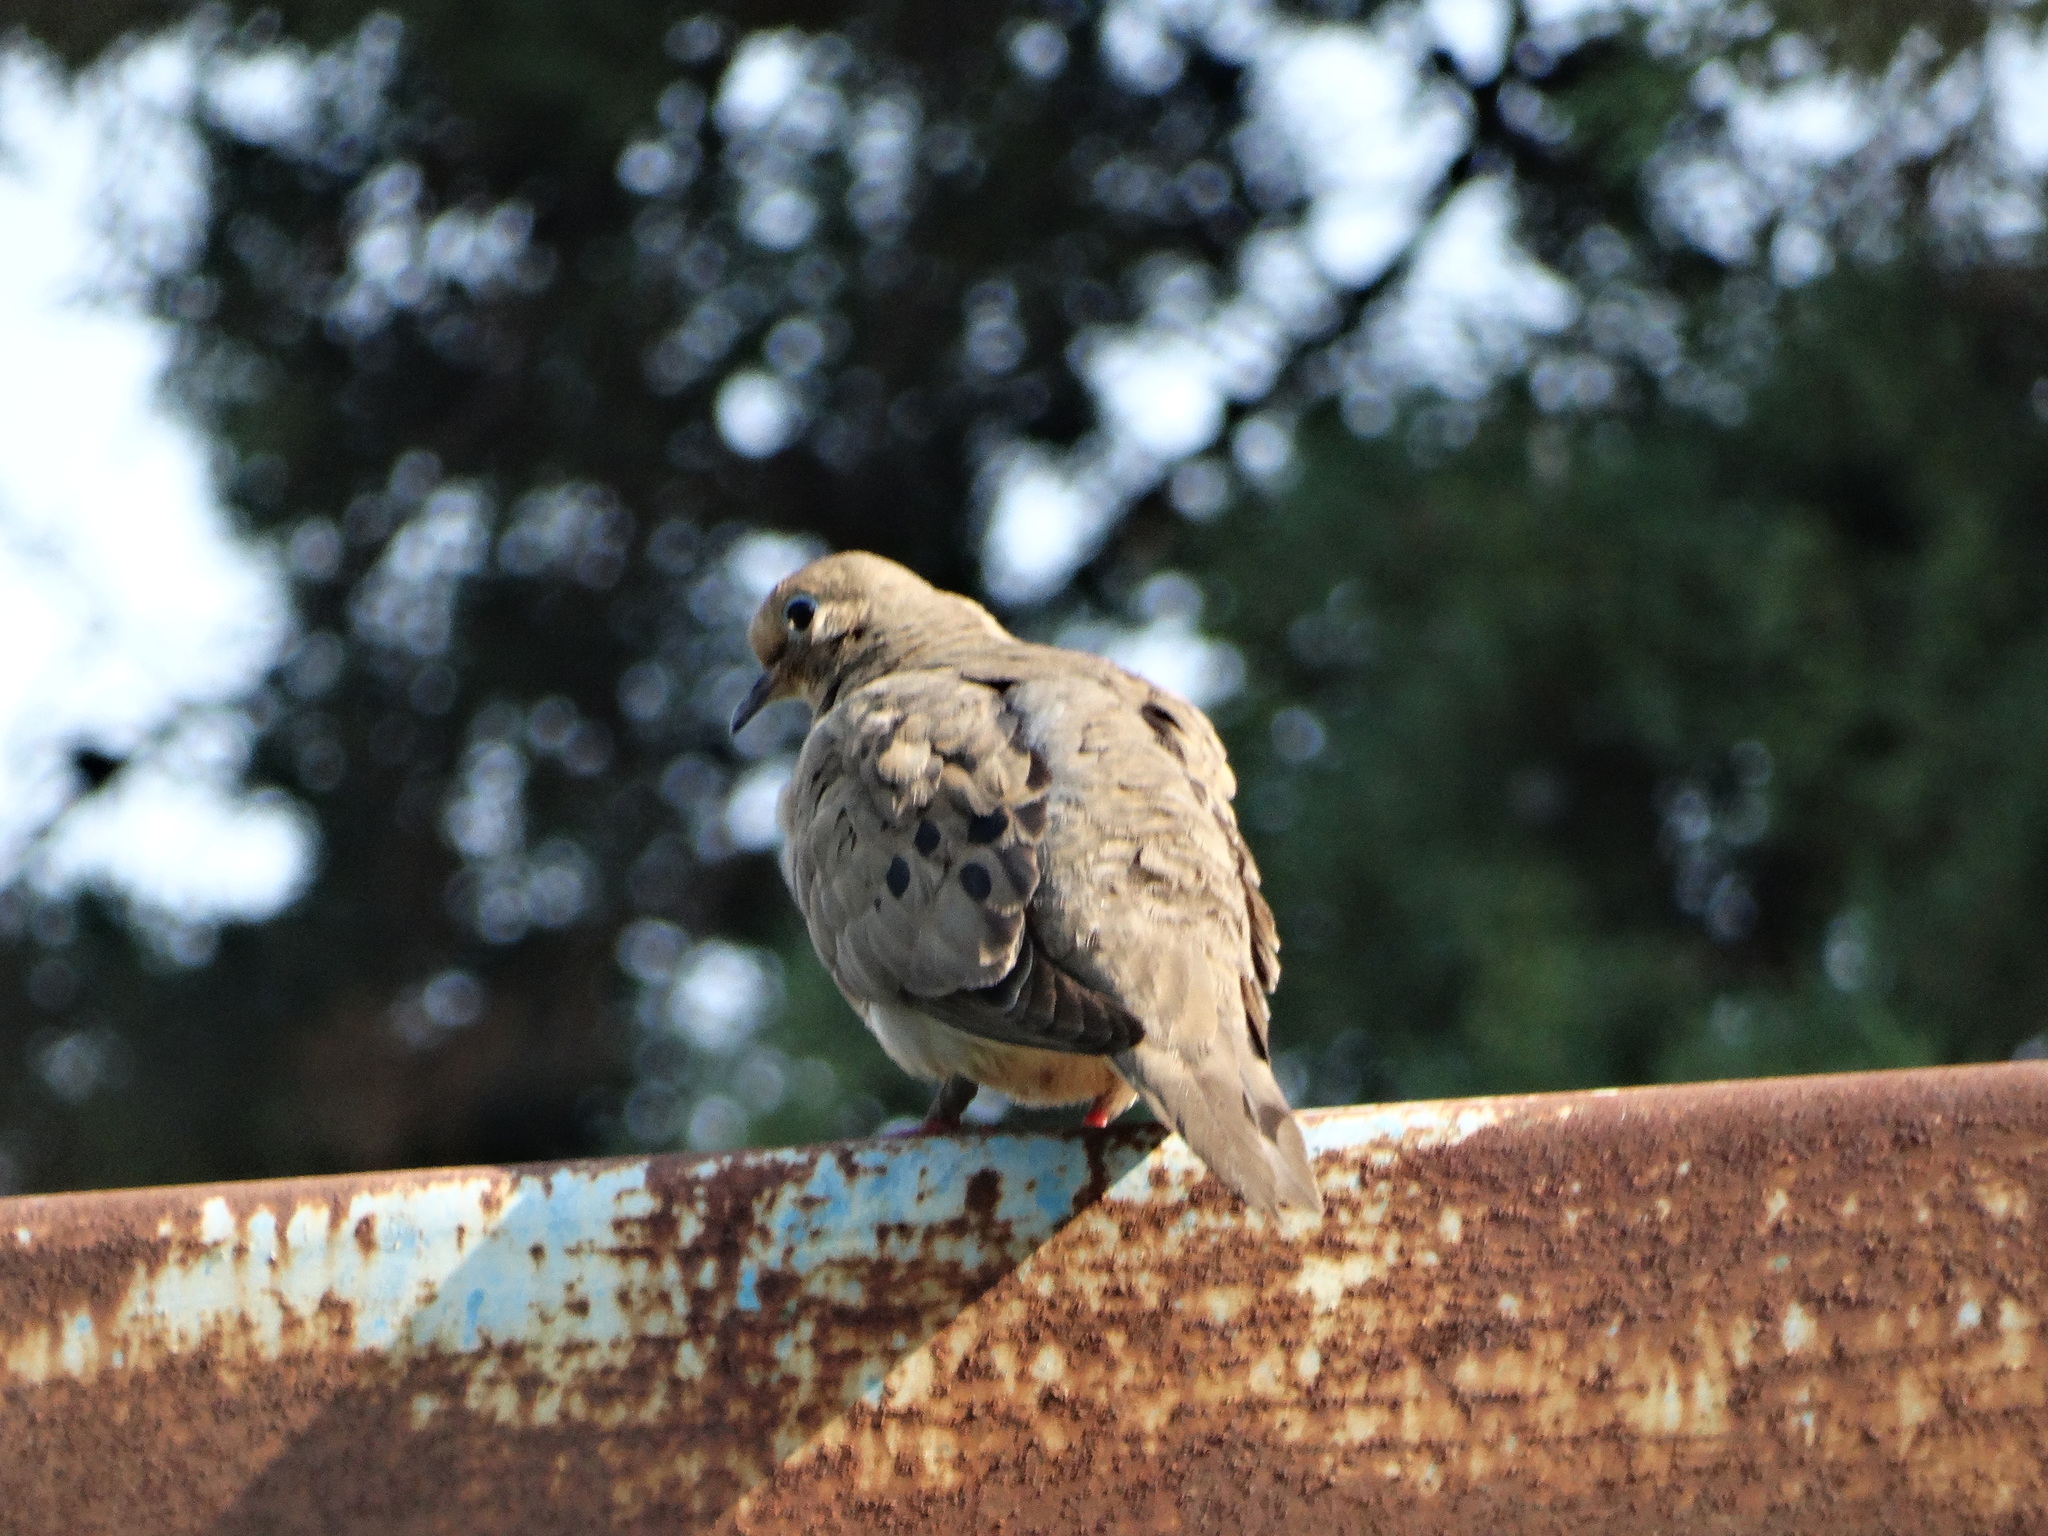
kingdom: Animalia
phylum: Chordata
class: Aves
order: Columbiformes
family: Columbidae
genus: Zenaida
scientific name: Zenaida macroura
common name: Mourning dove
